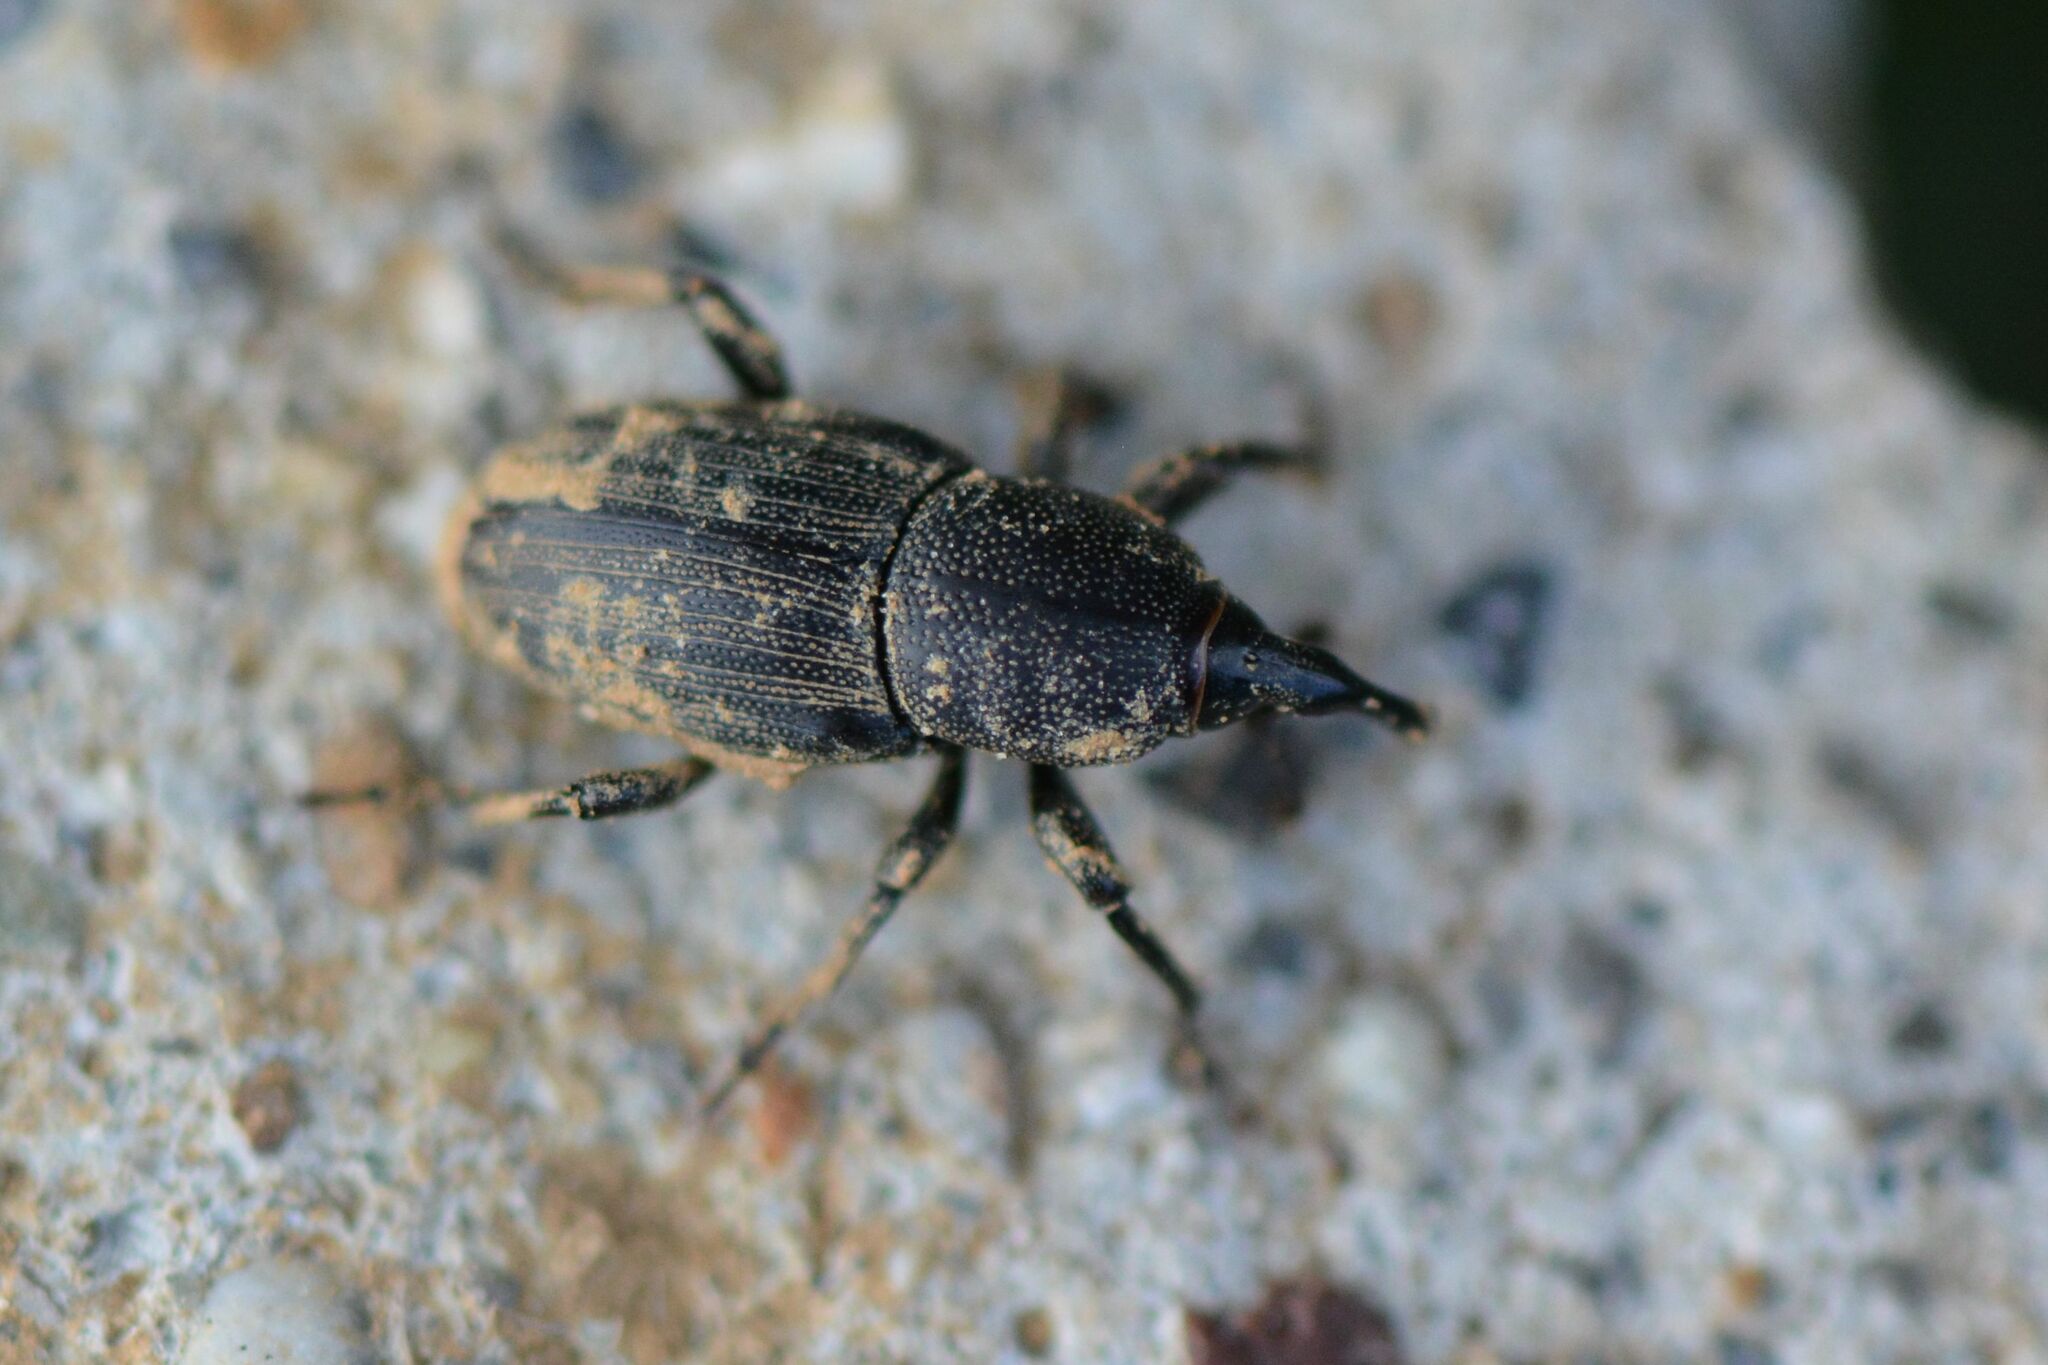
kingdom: Animalia
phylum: Arthropoda
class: Insecta
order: Coleoptera
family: Dryophthoridae
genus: Sphenophorus
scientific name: Sphenophorus striatopunctatus
